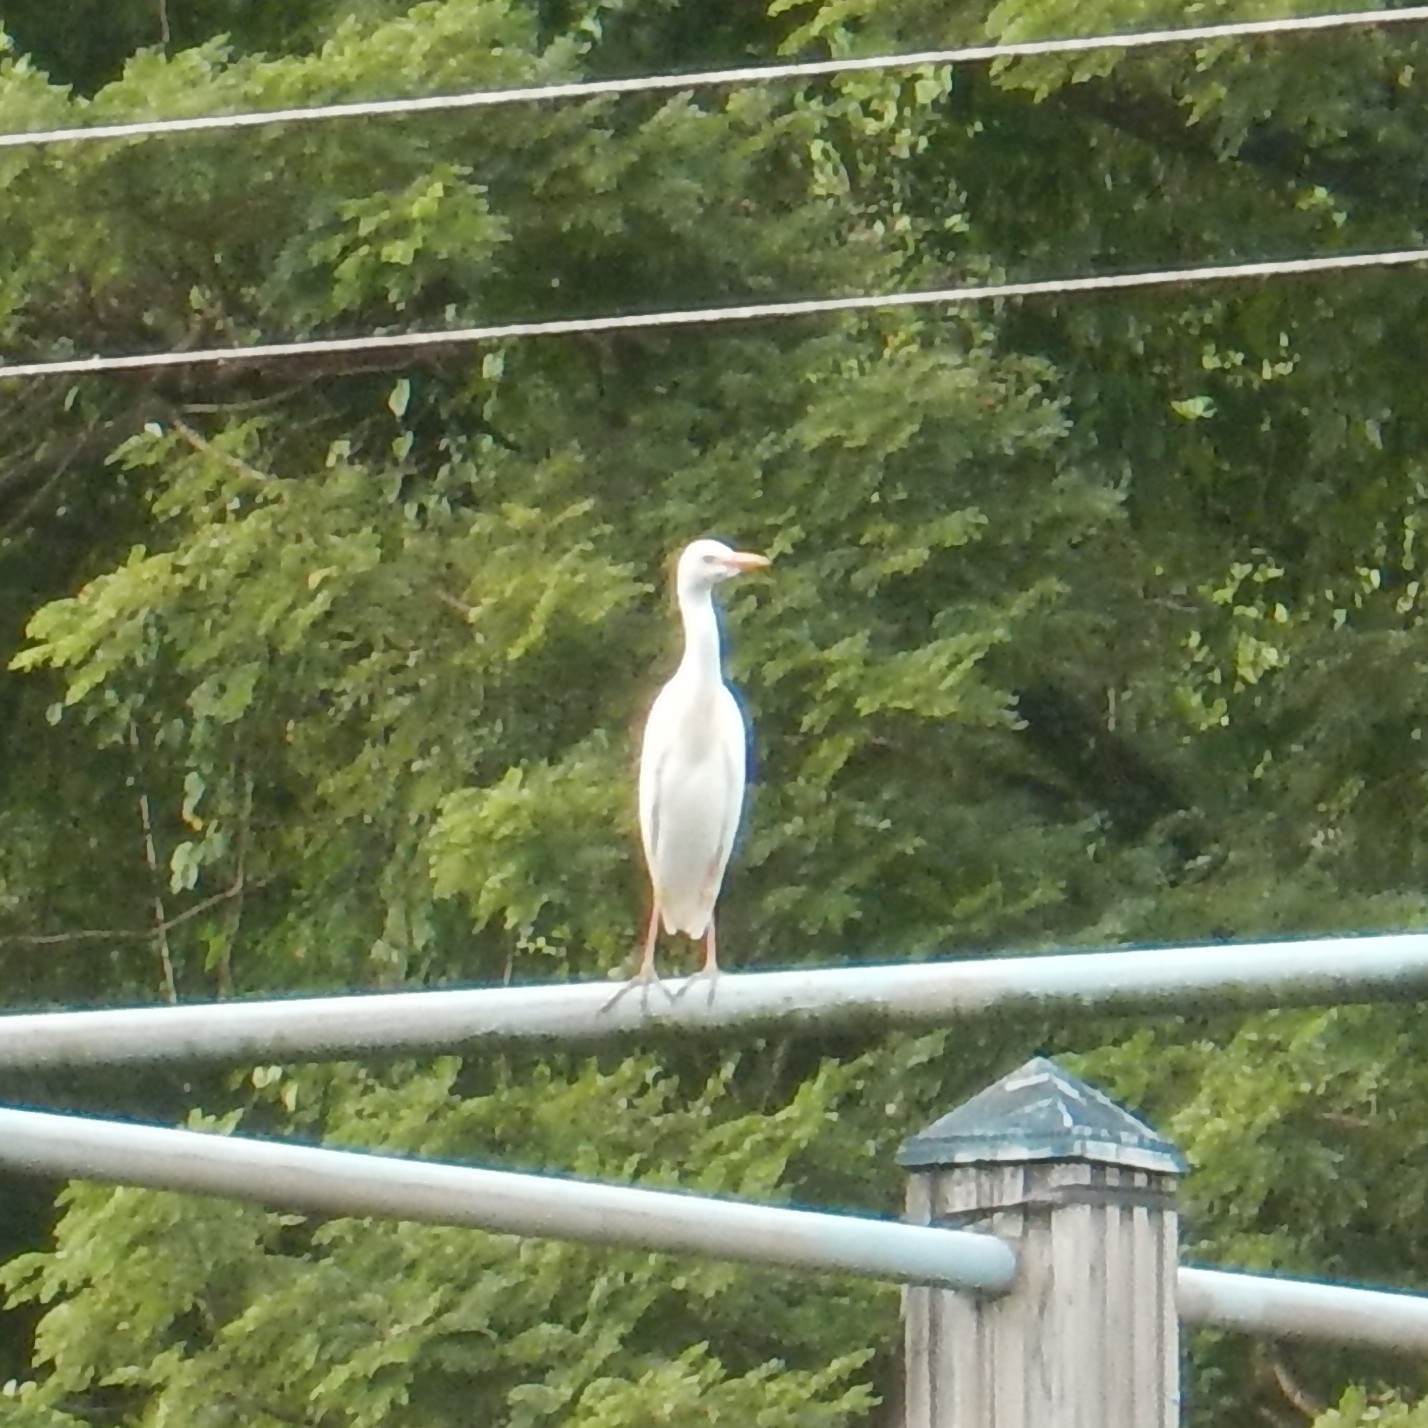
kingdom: Animalia
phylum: Chordata
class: Aves
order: Pelecaniformes
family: Ardeidae
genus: Bubulcus
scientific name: Bubulcus ibis
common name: Cattle egret
